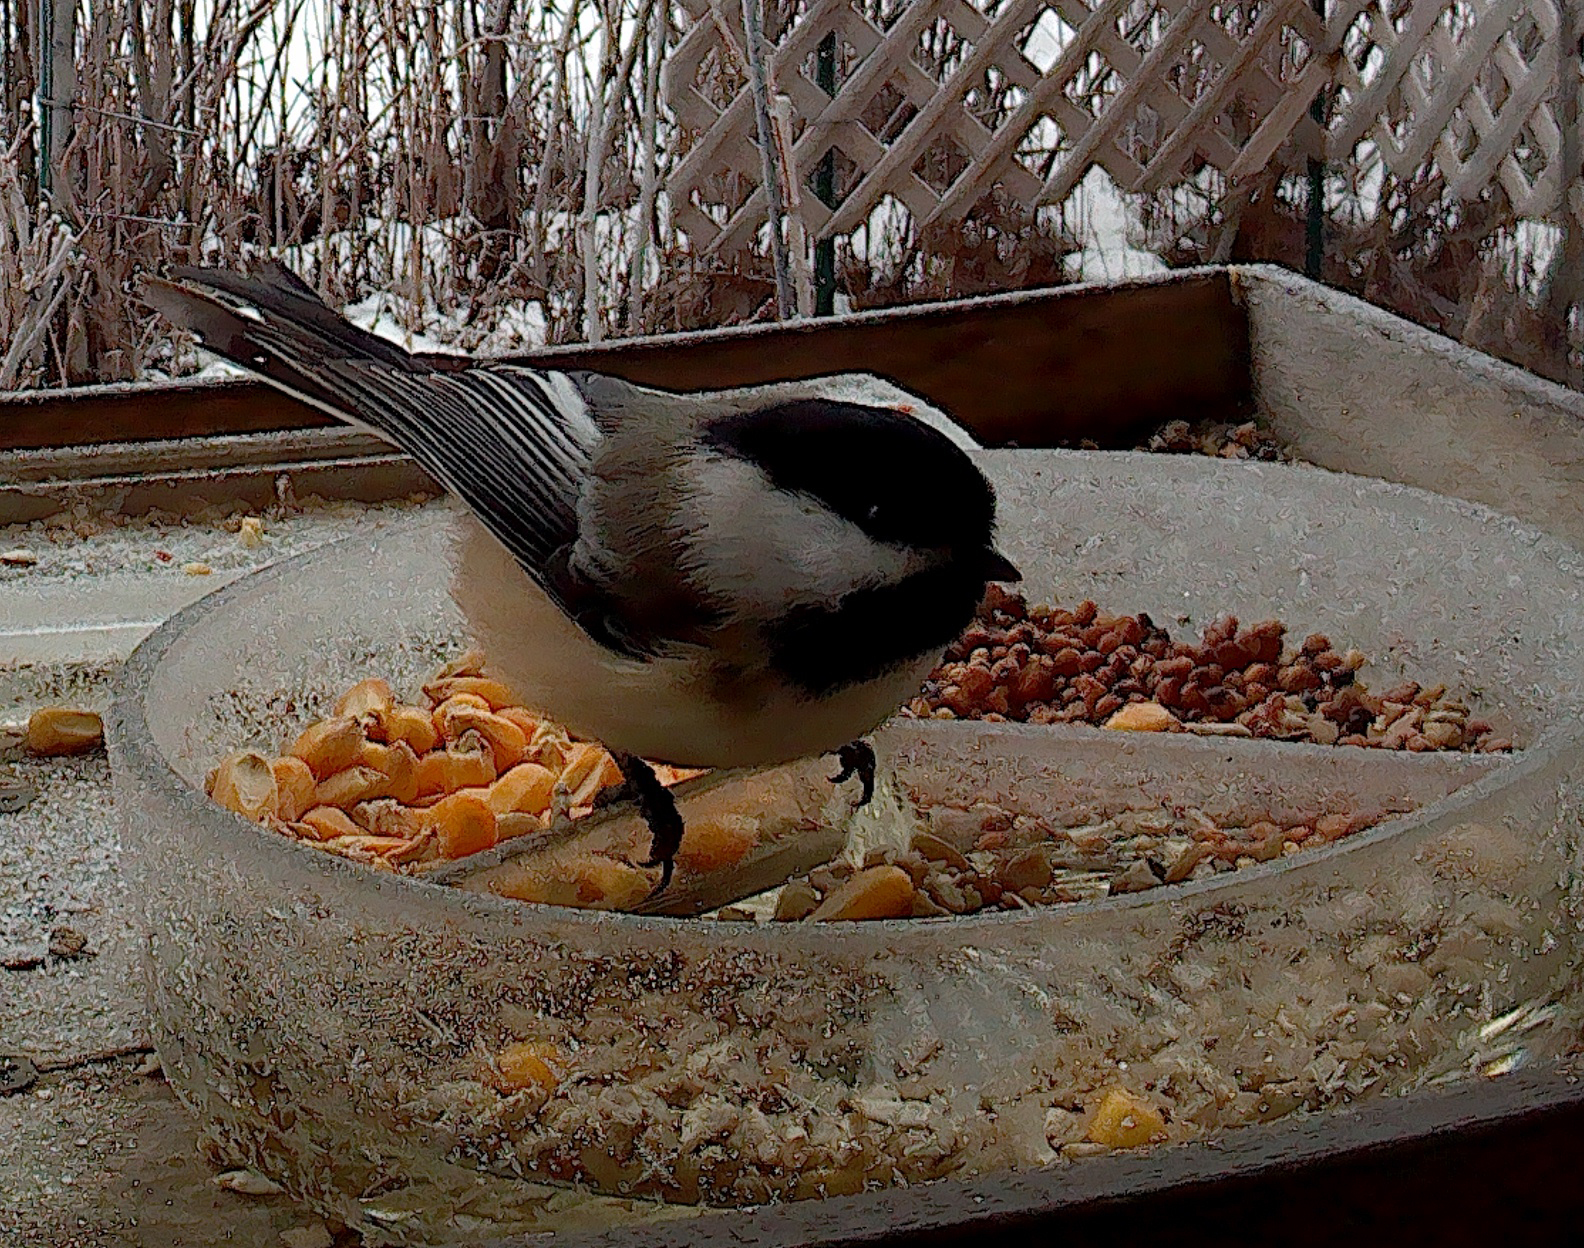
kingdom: Animalia
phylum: Chordata
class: Aves
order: Passeriformes
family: Paridae
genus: Poecile
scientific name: Poecile atricapillus
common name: Black-capped chickadee
